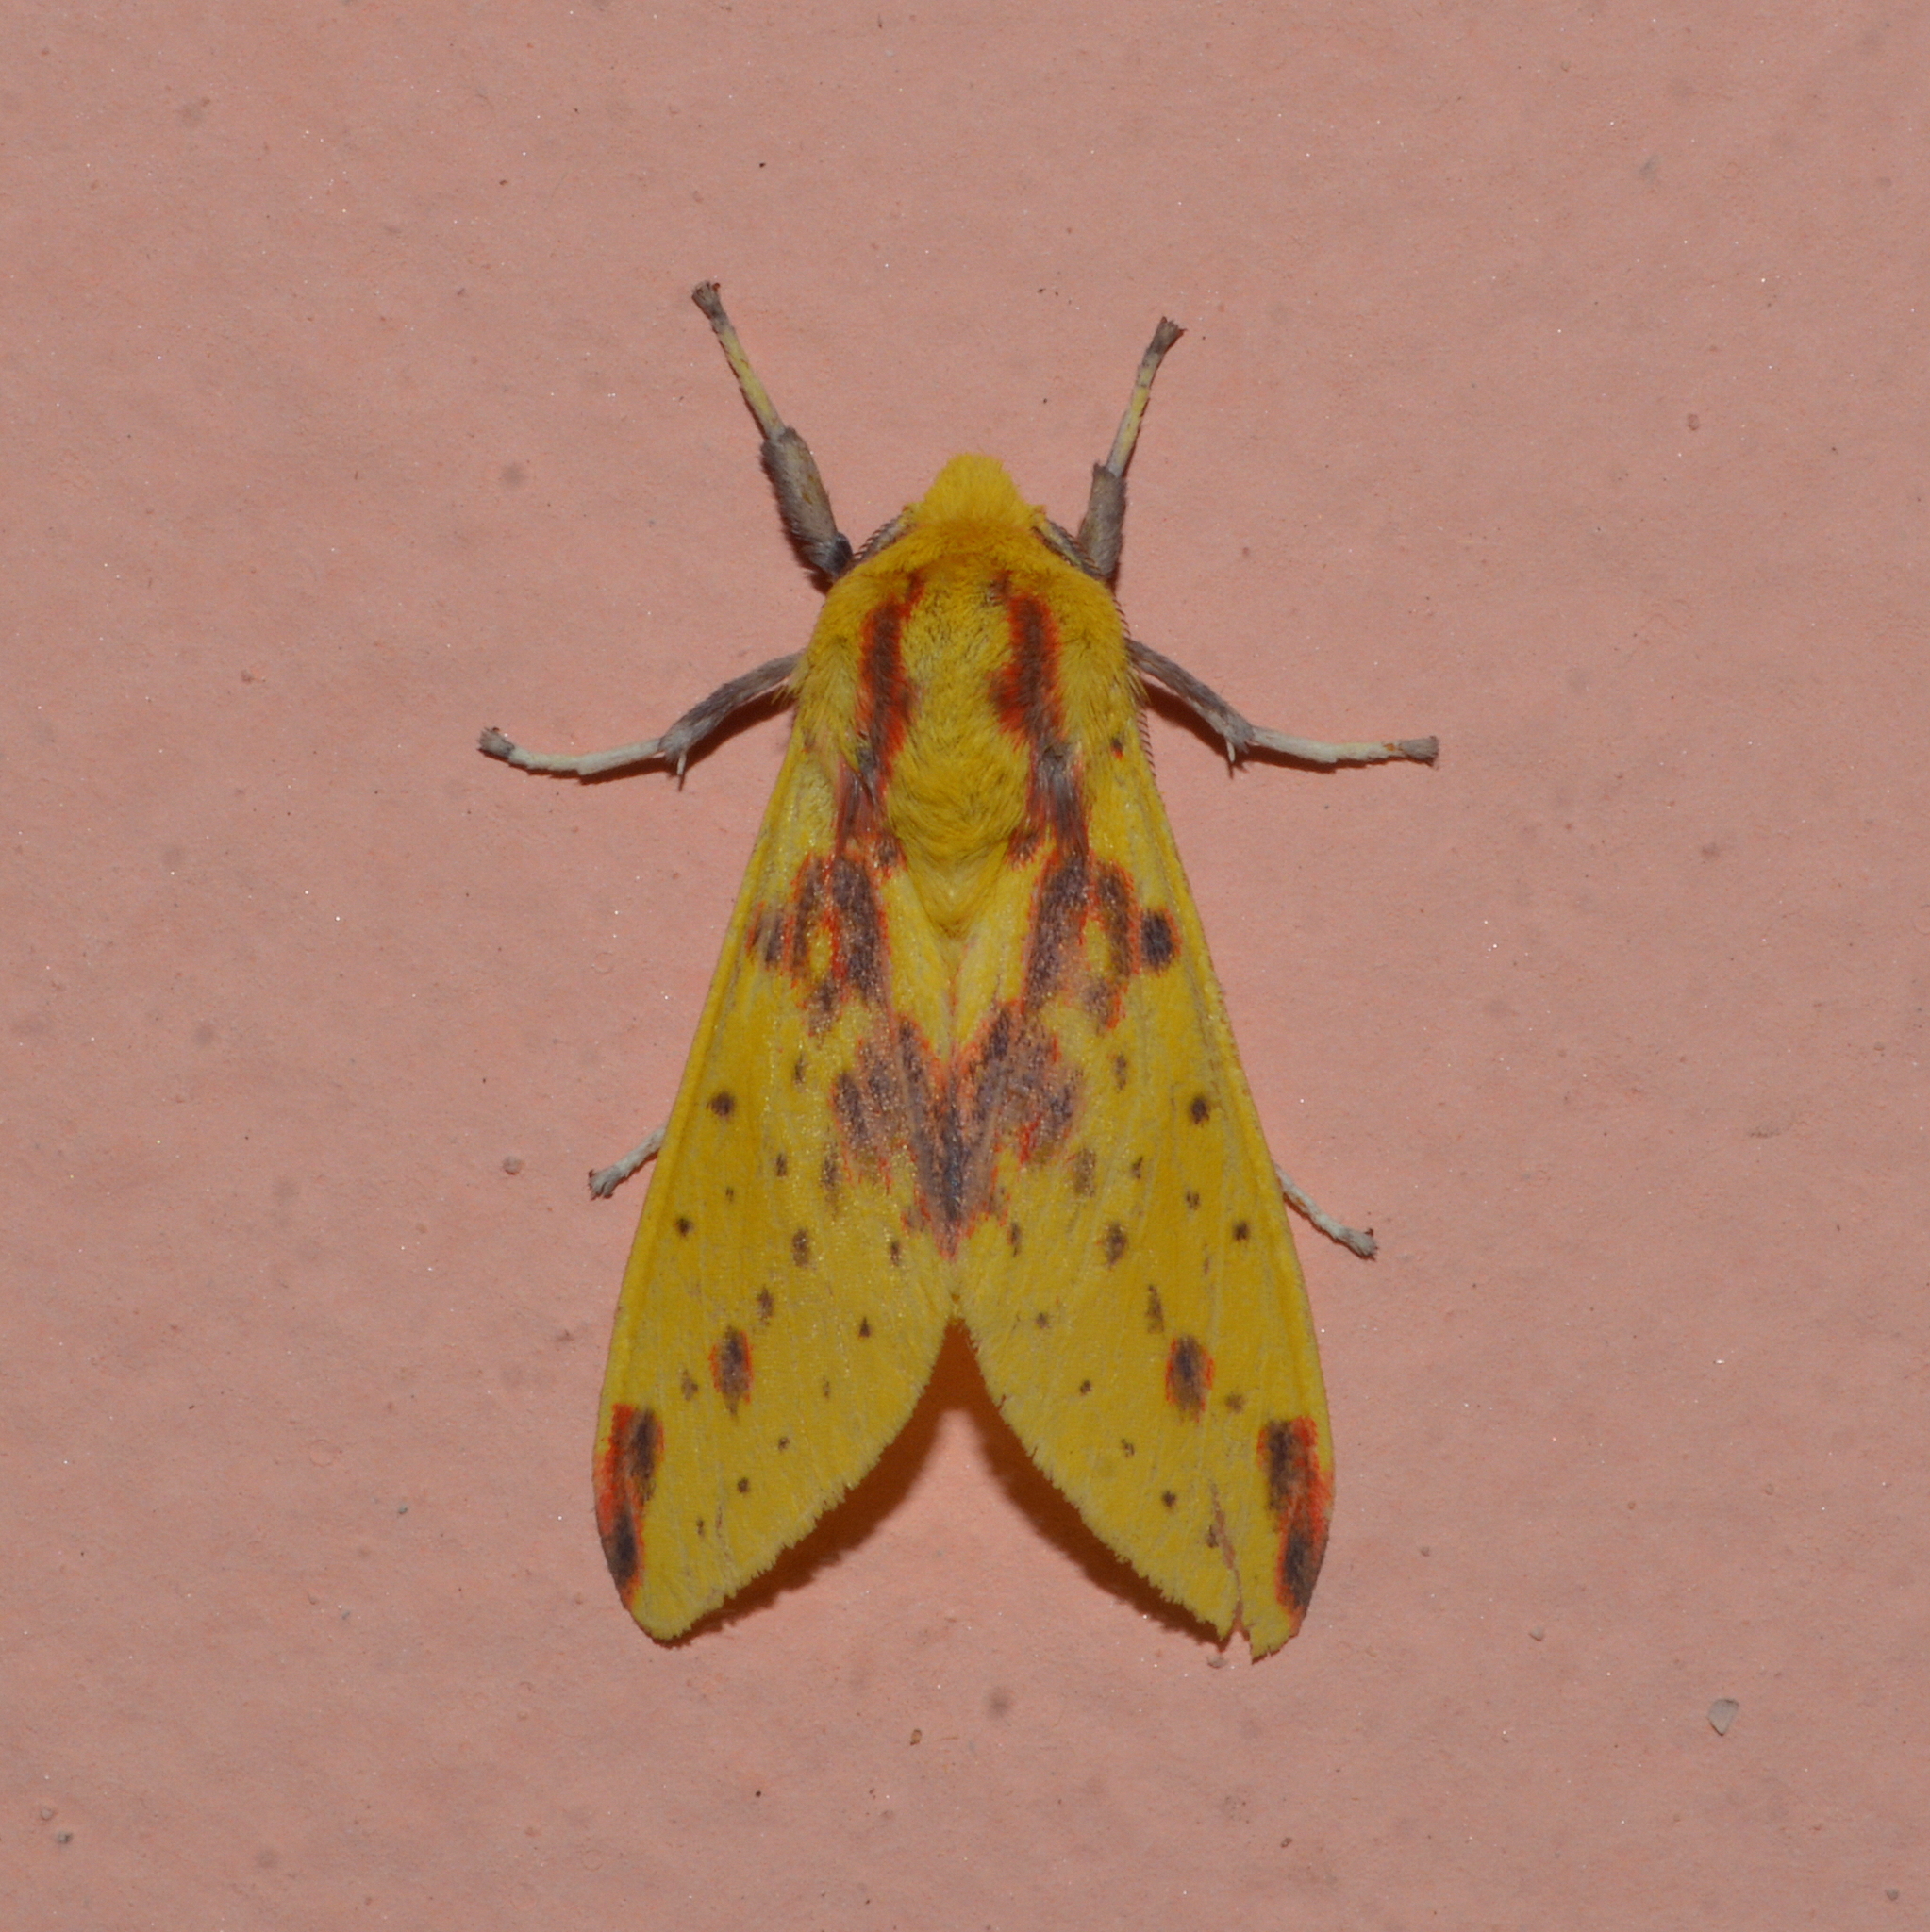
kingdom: Animalia
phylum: Arthropoda
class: Insecta
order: Lepidoptera
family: Erebidae
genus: Symphlebia
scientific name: Symphlebia catenata
